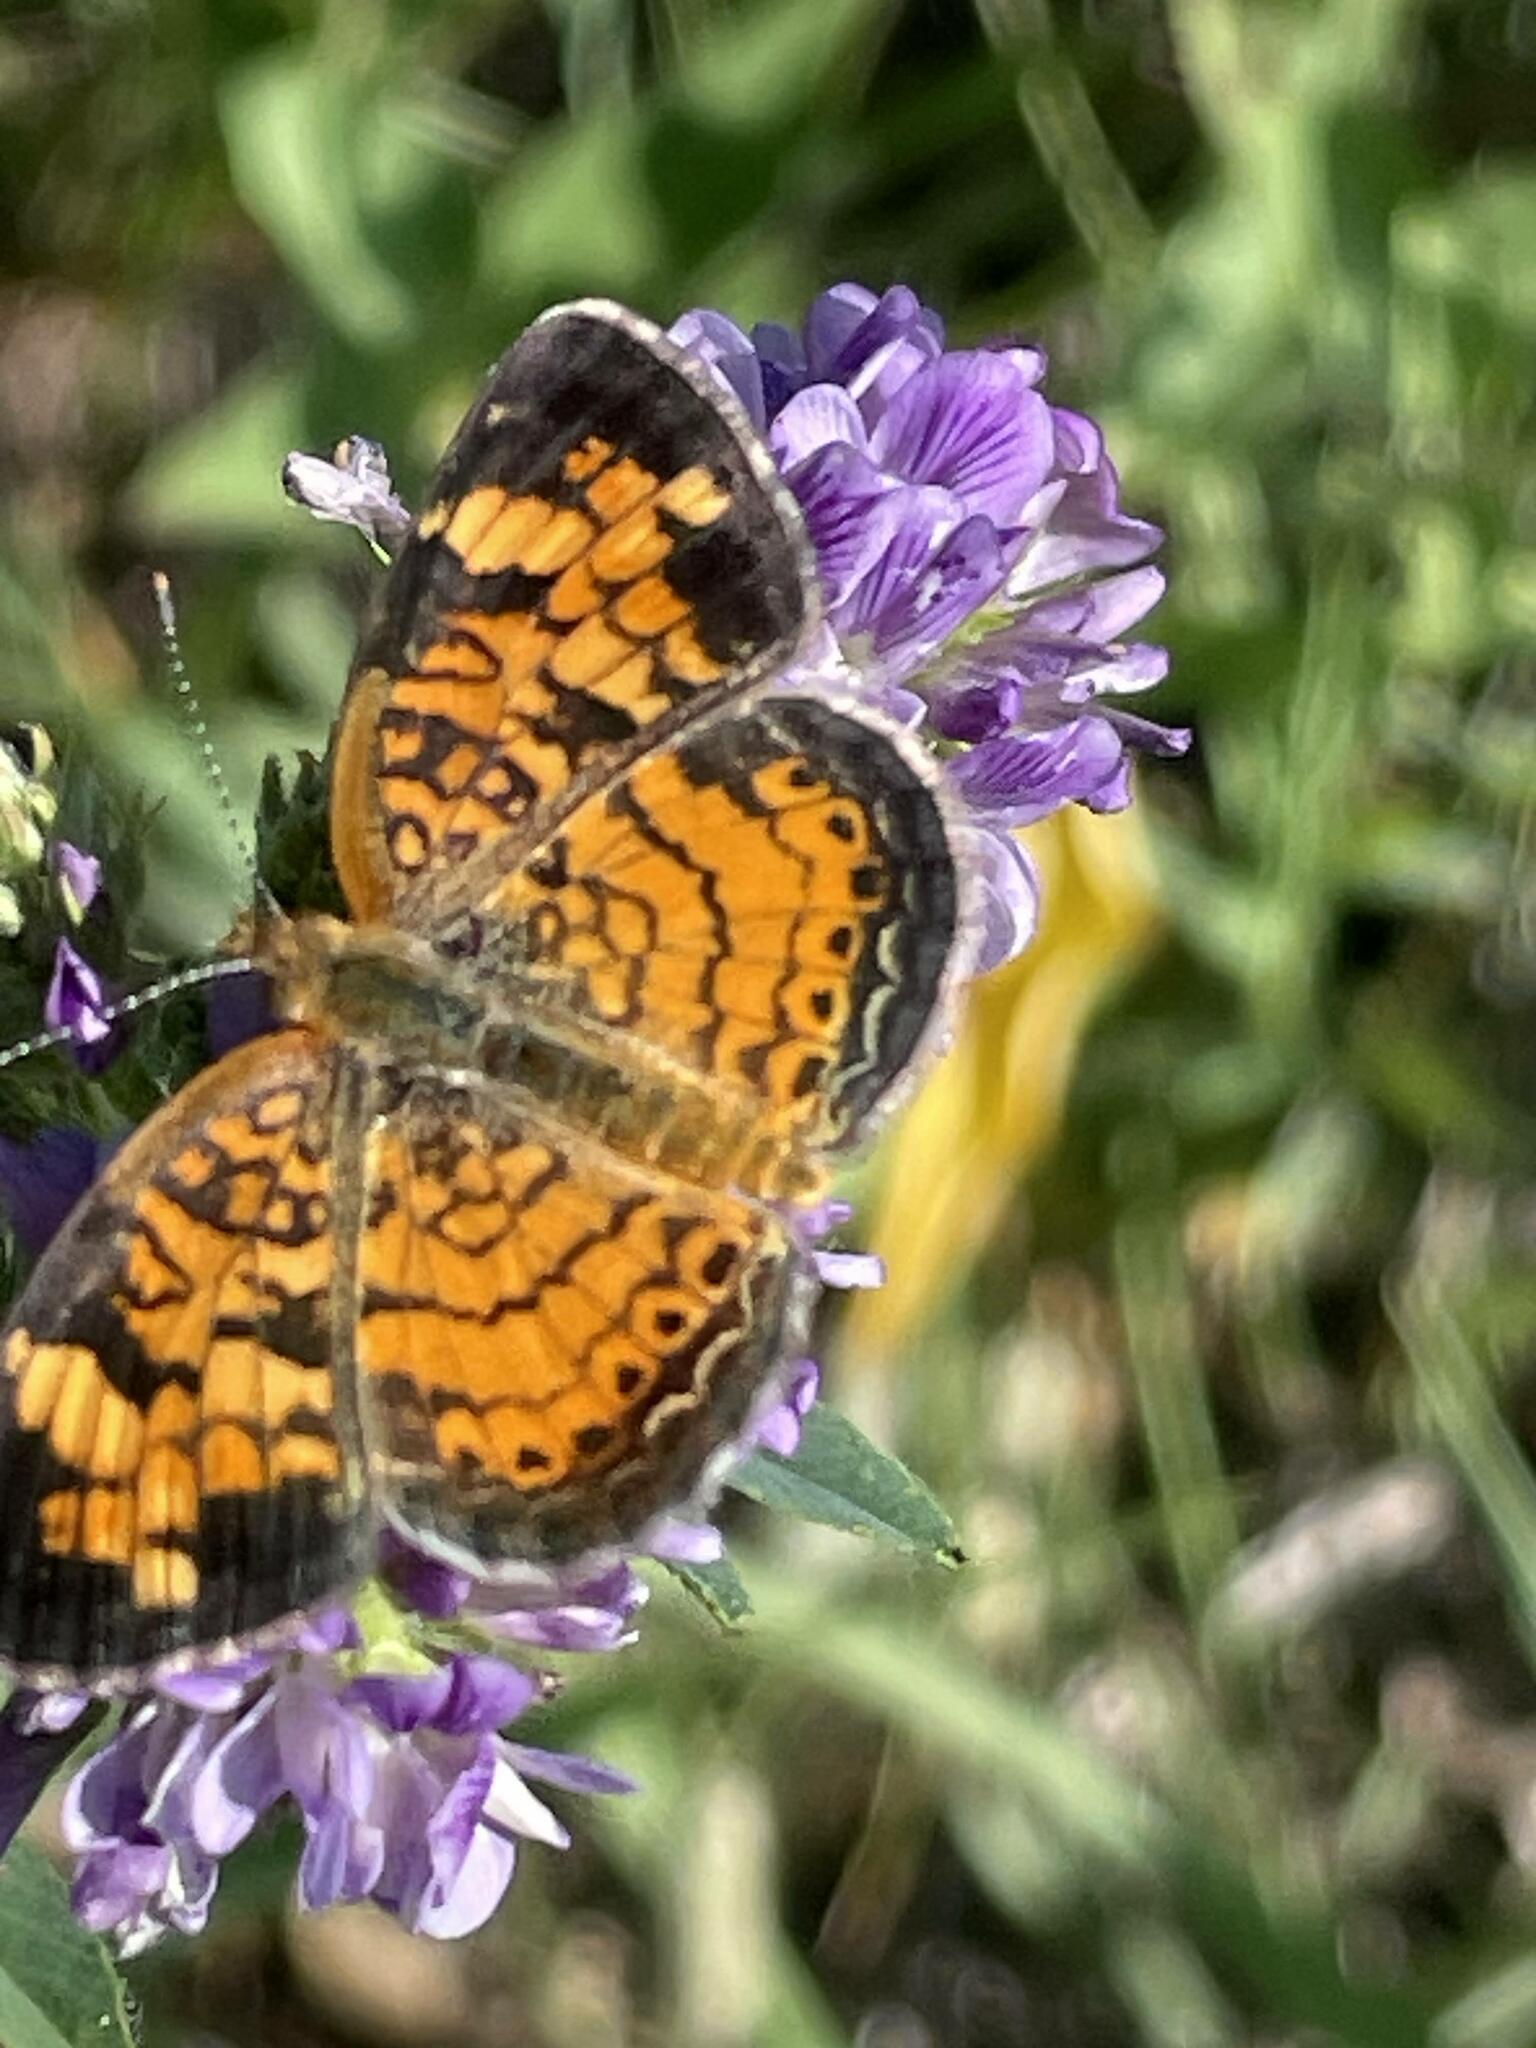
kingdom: Animalia
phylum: Arthropoda
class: Insecta
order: Lepidoptera
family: Nymphalidae
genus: Phyciodes
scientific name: Phyciodes tharos
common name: Pearl crescent
